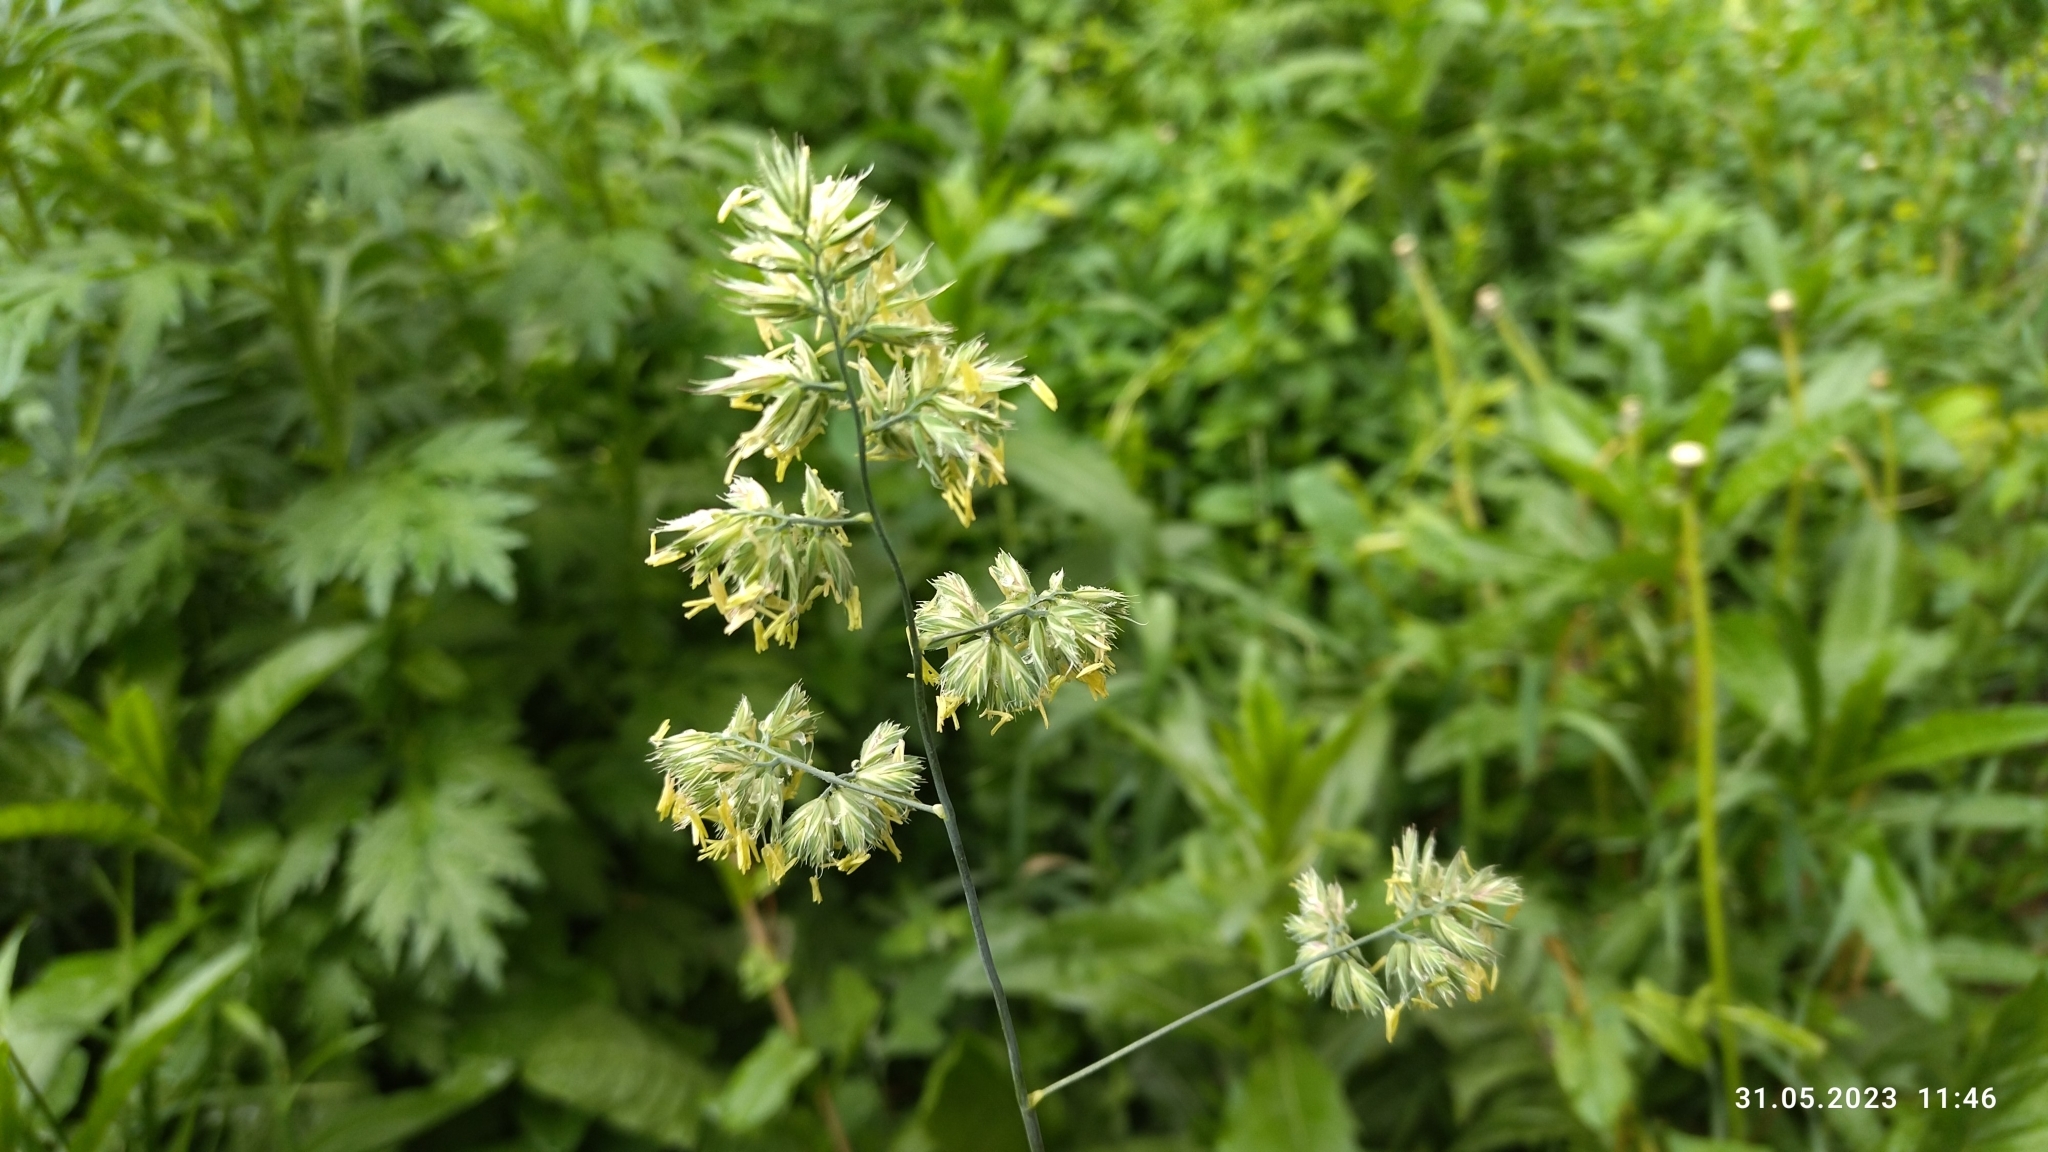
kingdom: Plantae
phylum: Tracheophyta
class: Liliopsida
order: Poales
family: Poaceae
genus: Dactylis
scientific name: Dactylis glomerata
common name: Orchardgrass
